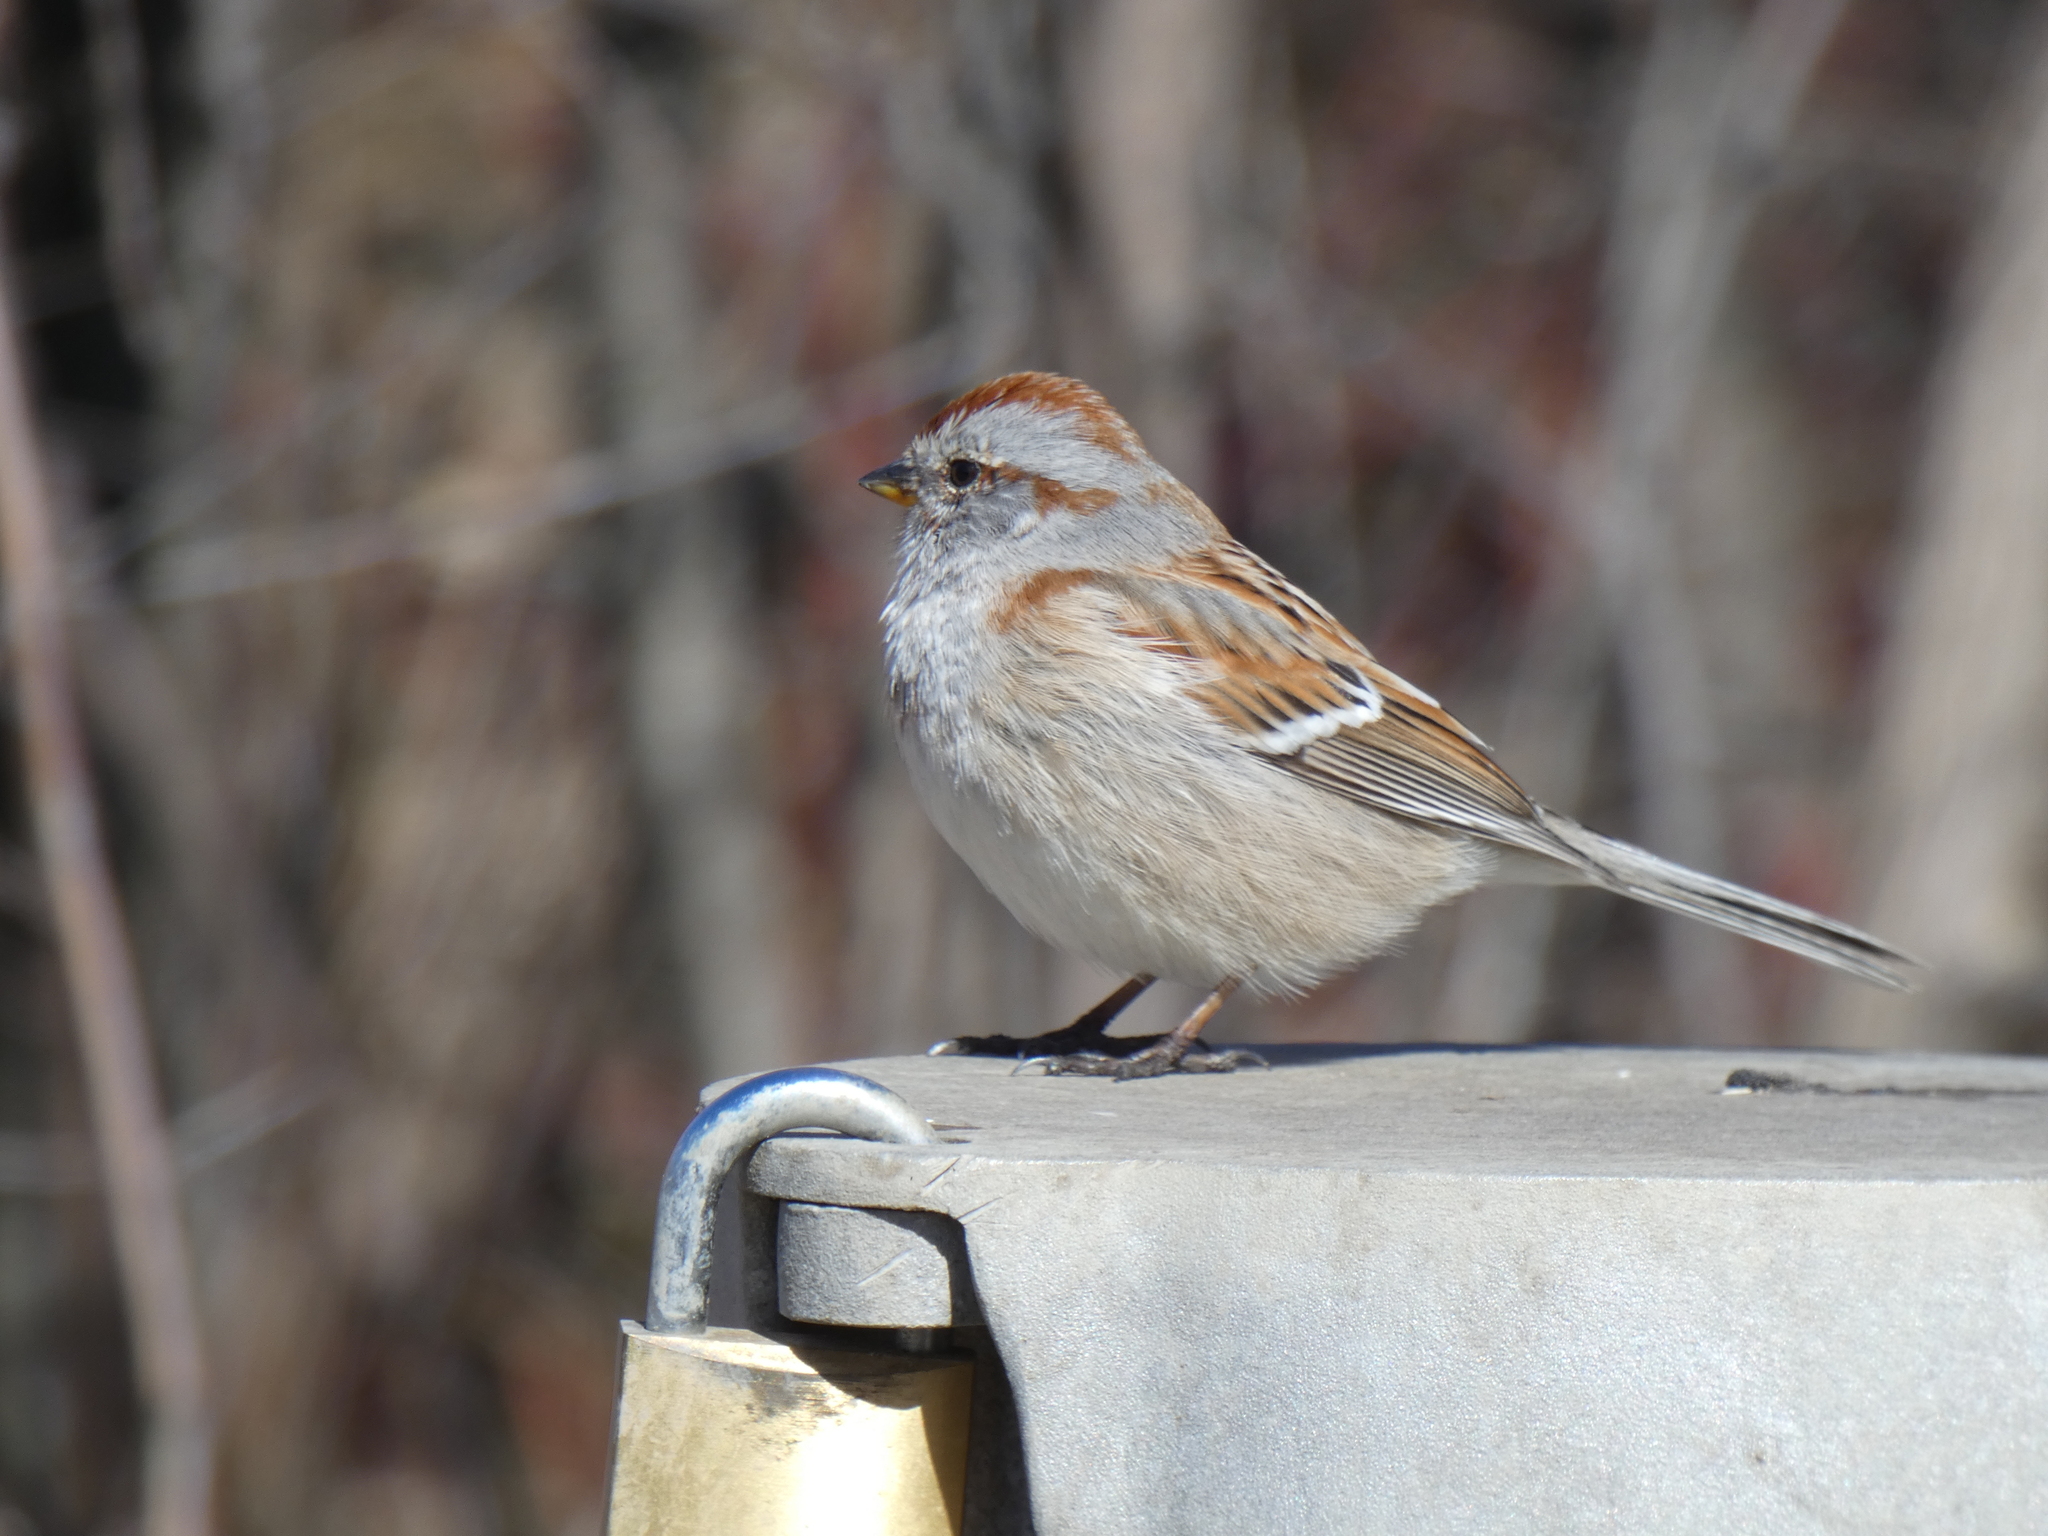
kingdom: Animalia
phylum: Chordata
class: Aves
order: Passeriformes
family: Passerellidae
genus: Spizelloides
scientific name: Spizelloides arborea
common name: American tree sparrow
